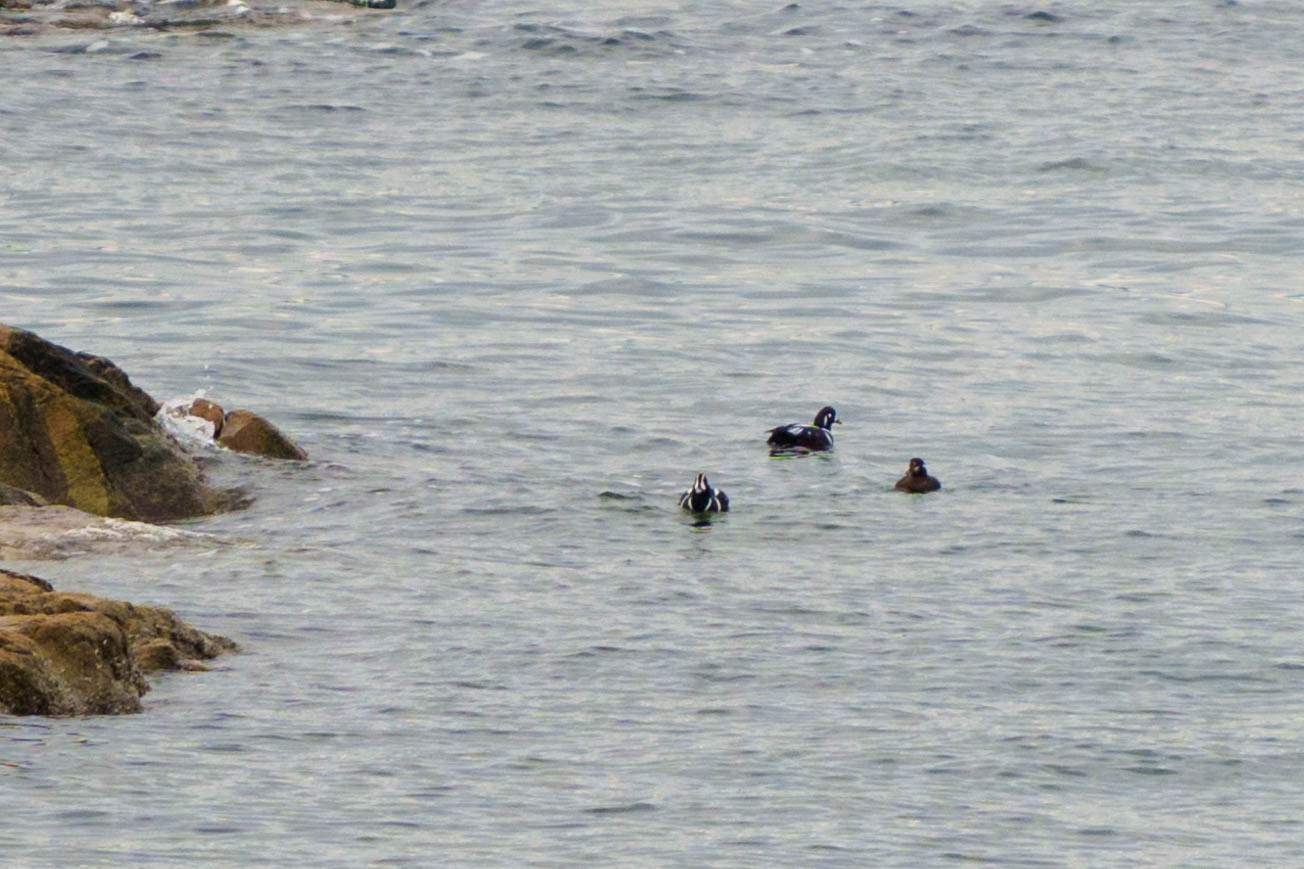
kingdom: Animalia
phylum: Chordata
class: Aves
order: Anseriformes
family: Anatidae
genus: Histrionicus
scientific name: Histrionicus histrionicus
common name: Harlequin duck
